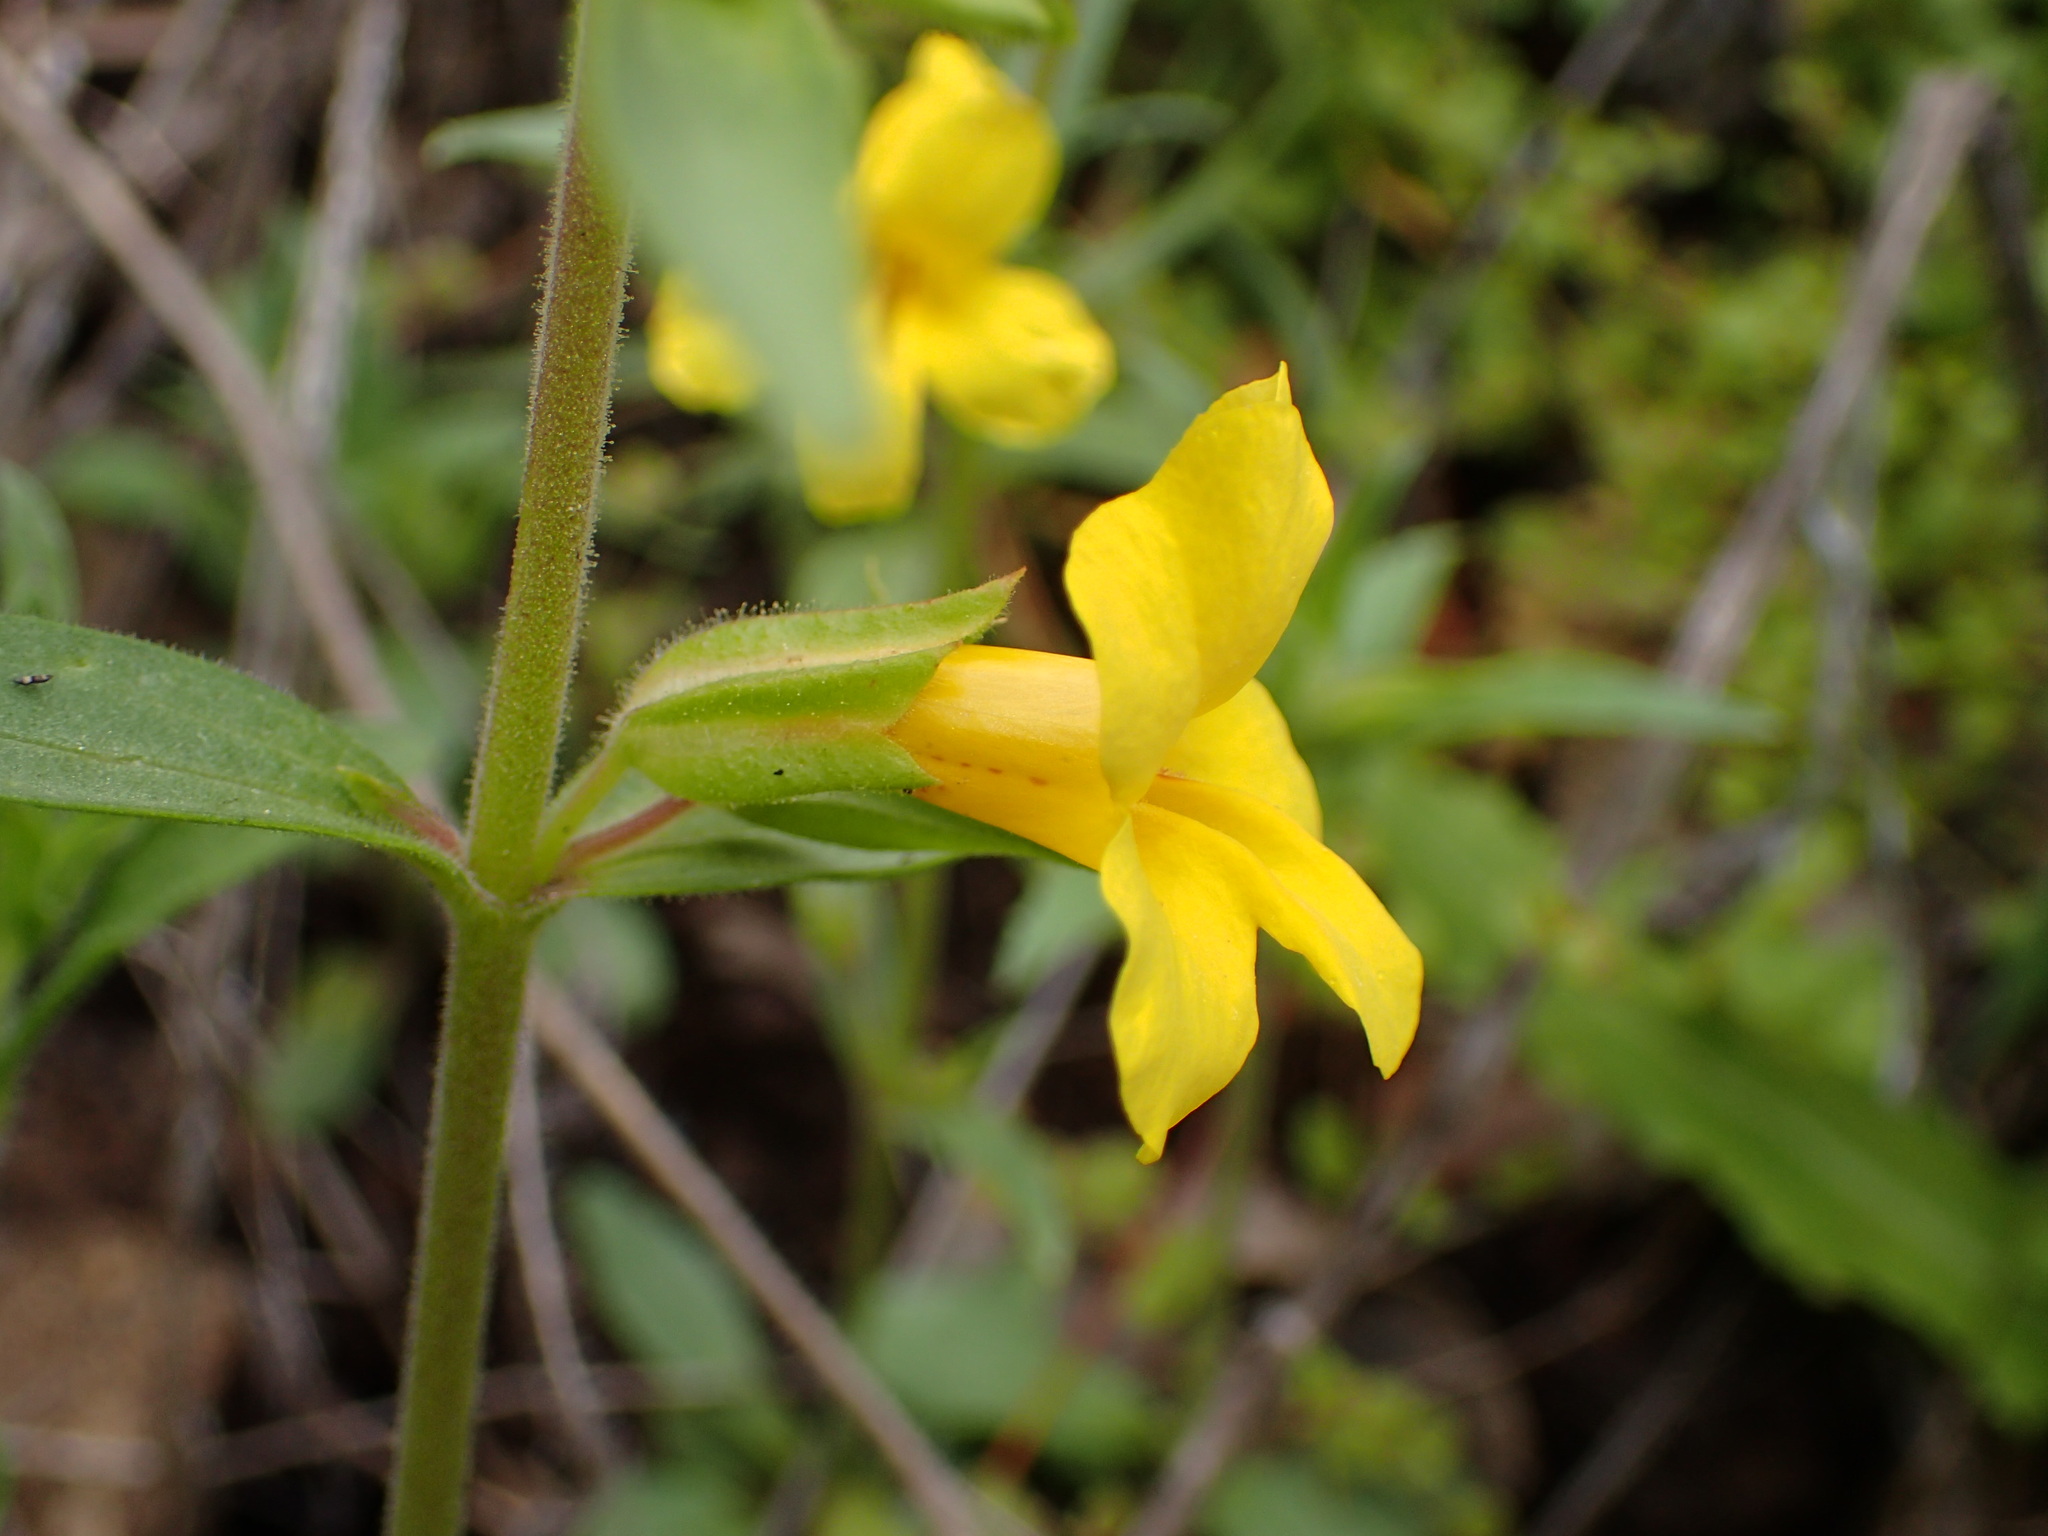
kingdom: Plantae
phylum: Tracheophyta
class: Magnoliopsida
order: Lamiales
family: Phrymaceae
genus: Diplacus
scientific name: Diplacus brevipes
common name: Wide-throat yellow monkey-flower
